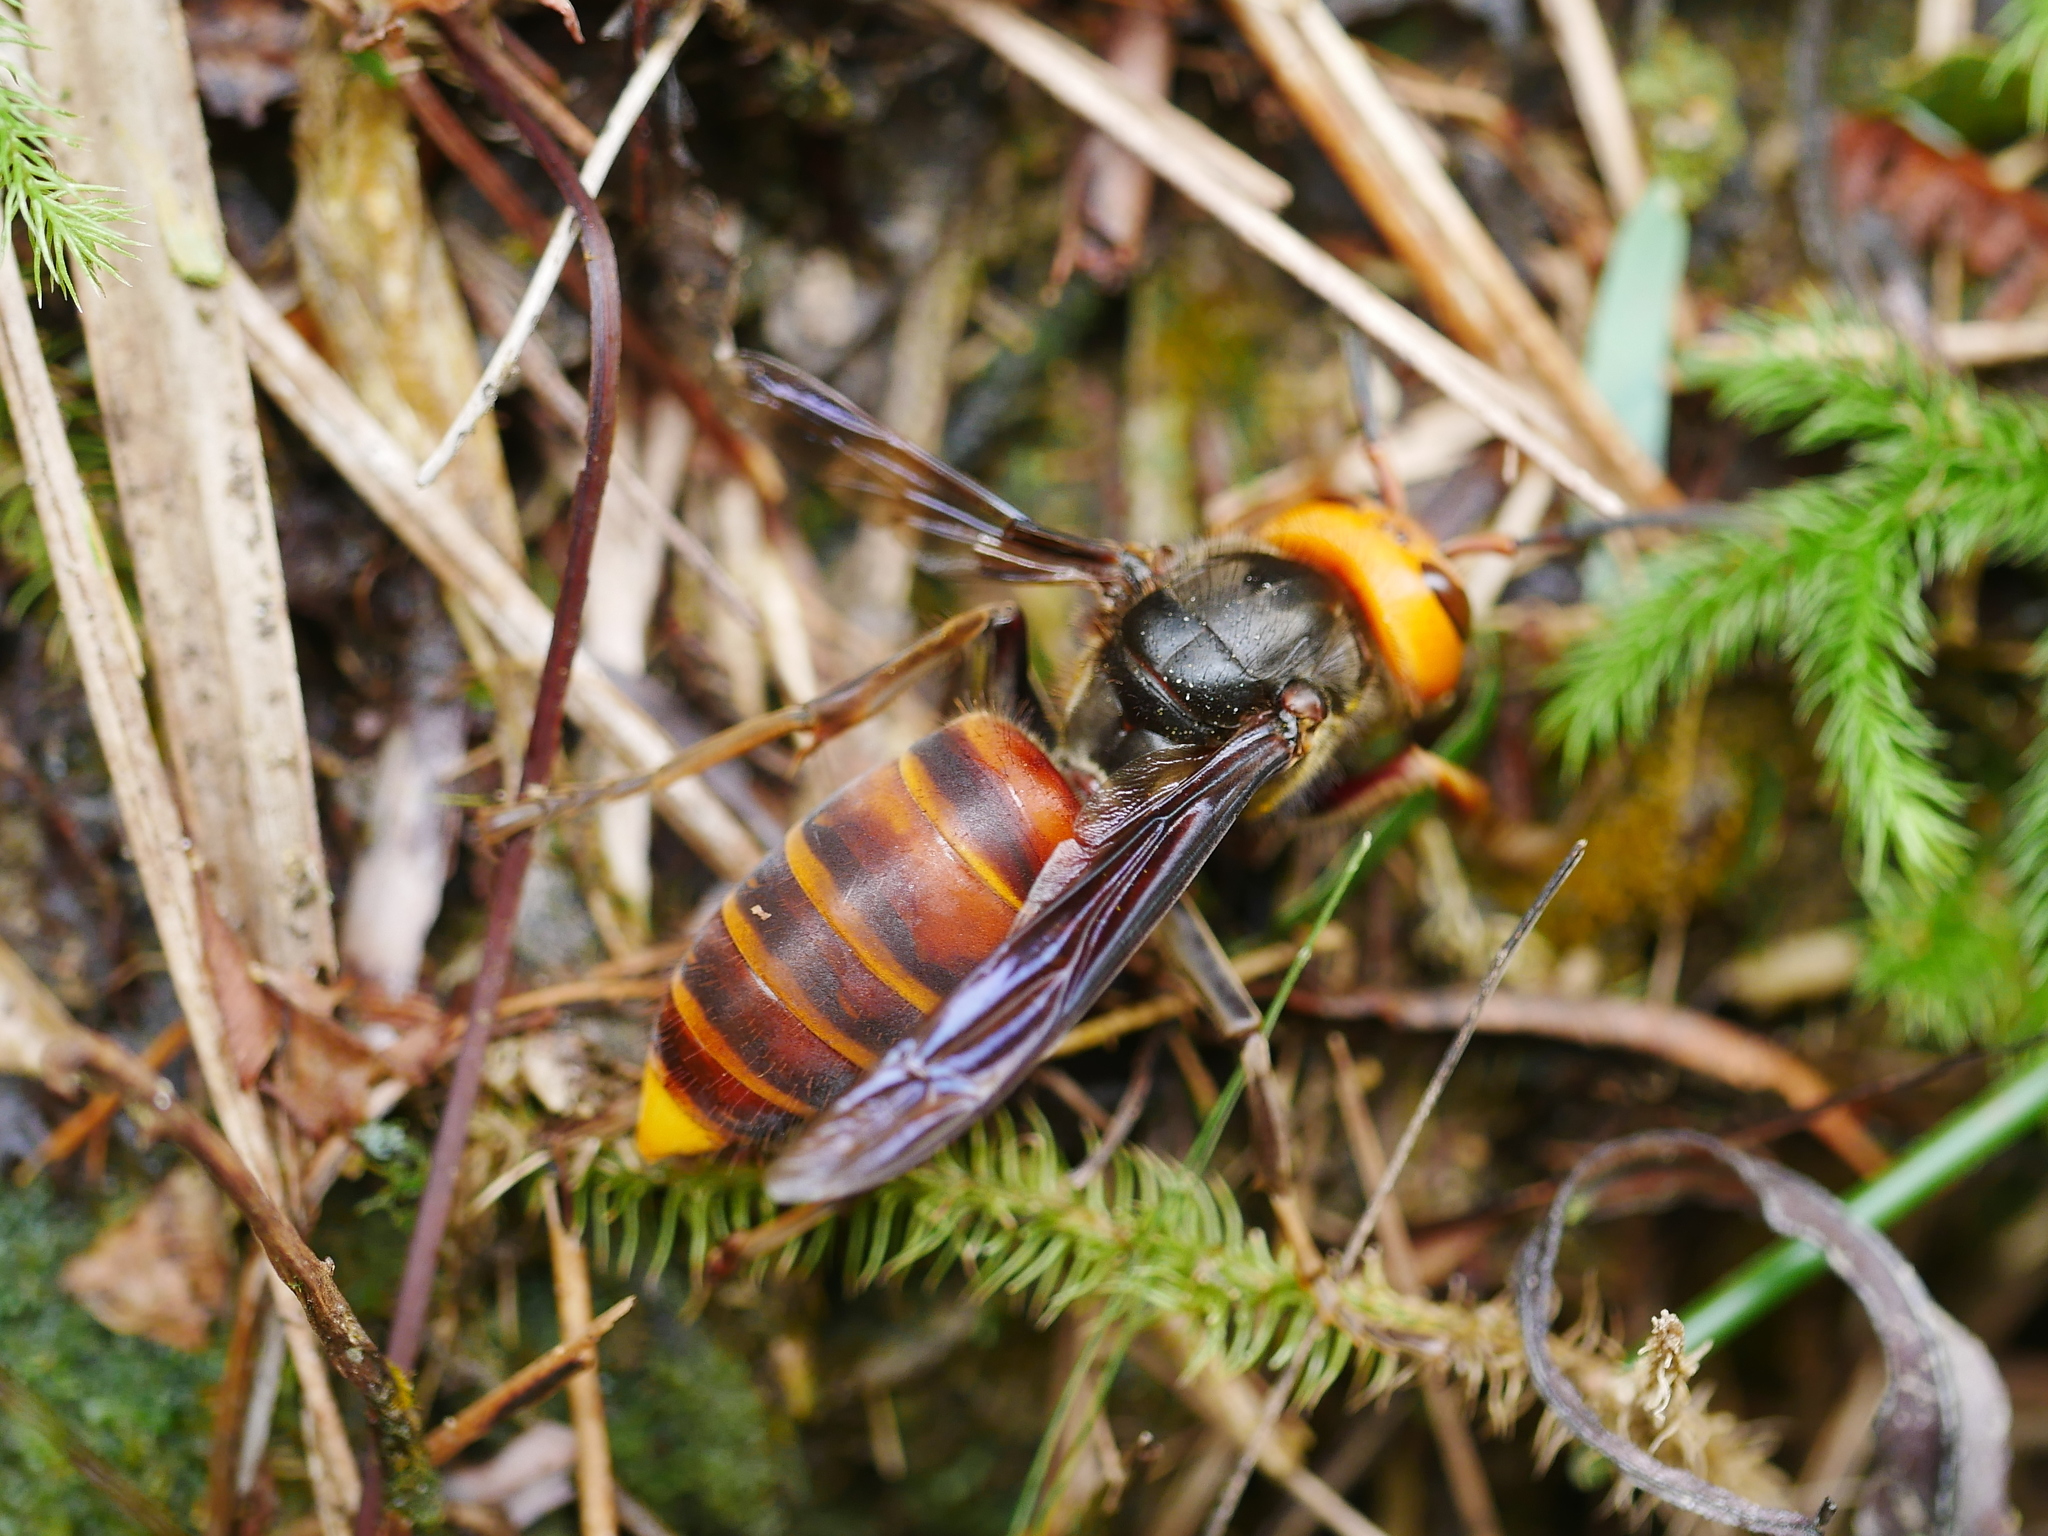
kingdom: Animalia
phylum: Arthropoda
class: Insecta
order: Hymenoptera
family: Vespidae
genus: Vespa
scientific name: Vespa mandarinia
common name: Asian giant hornet
